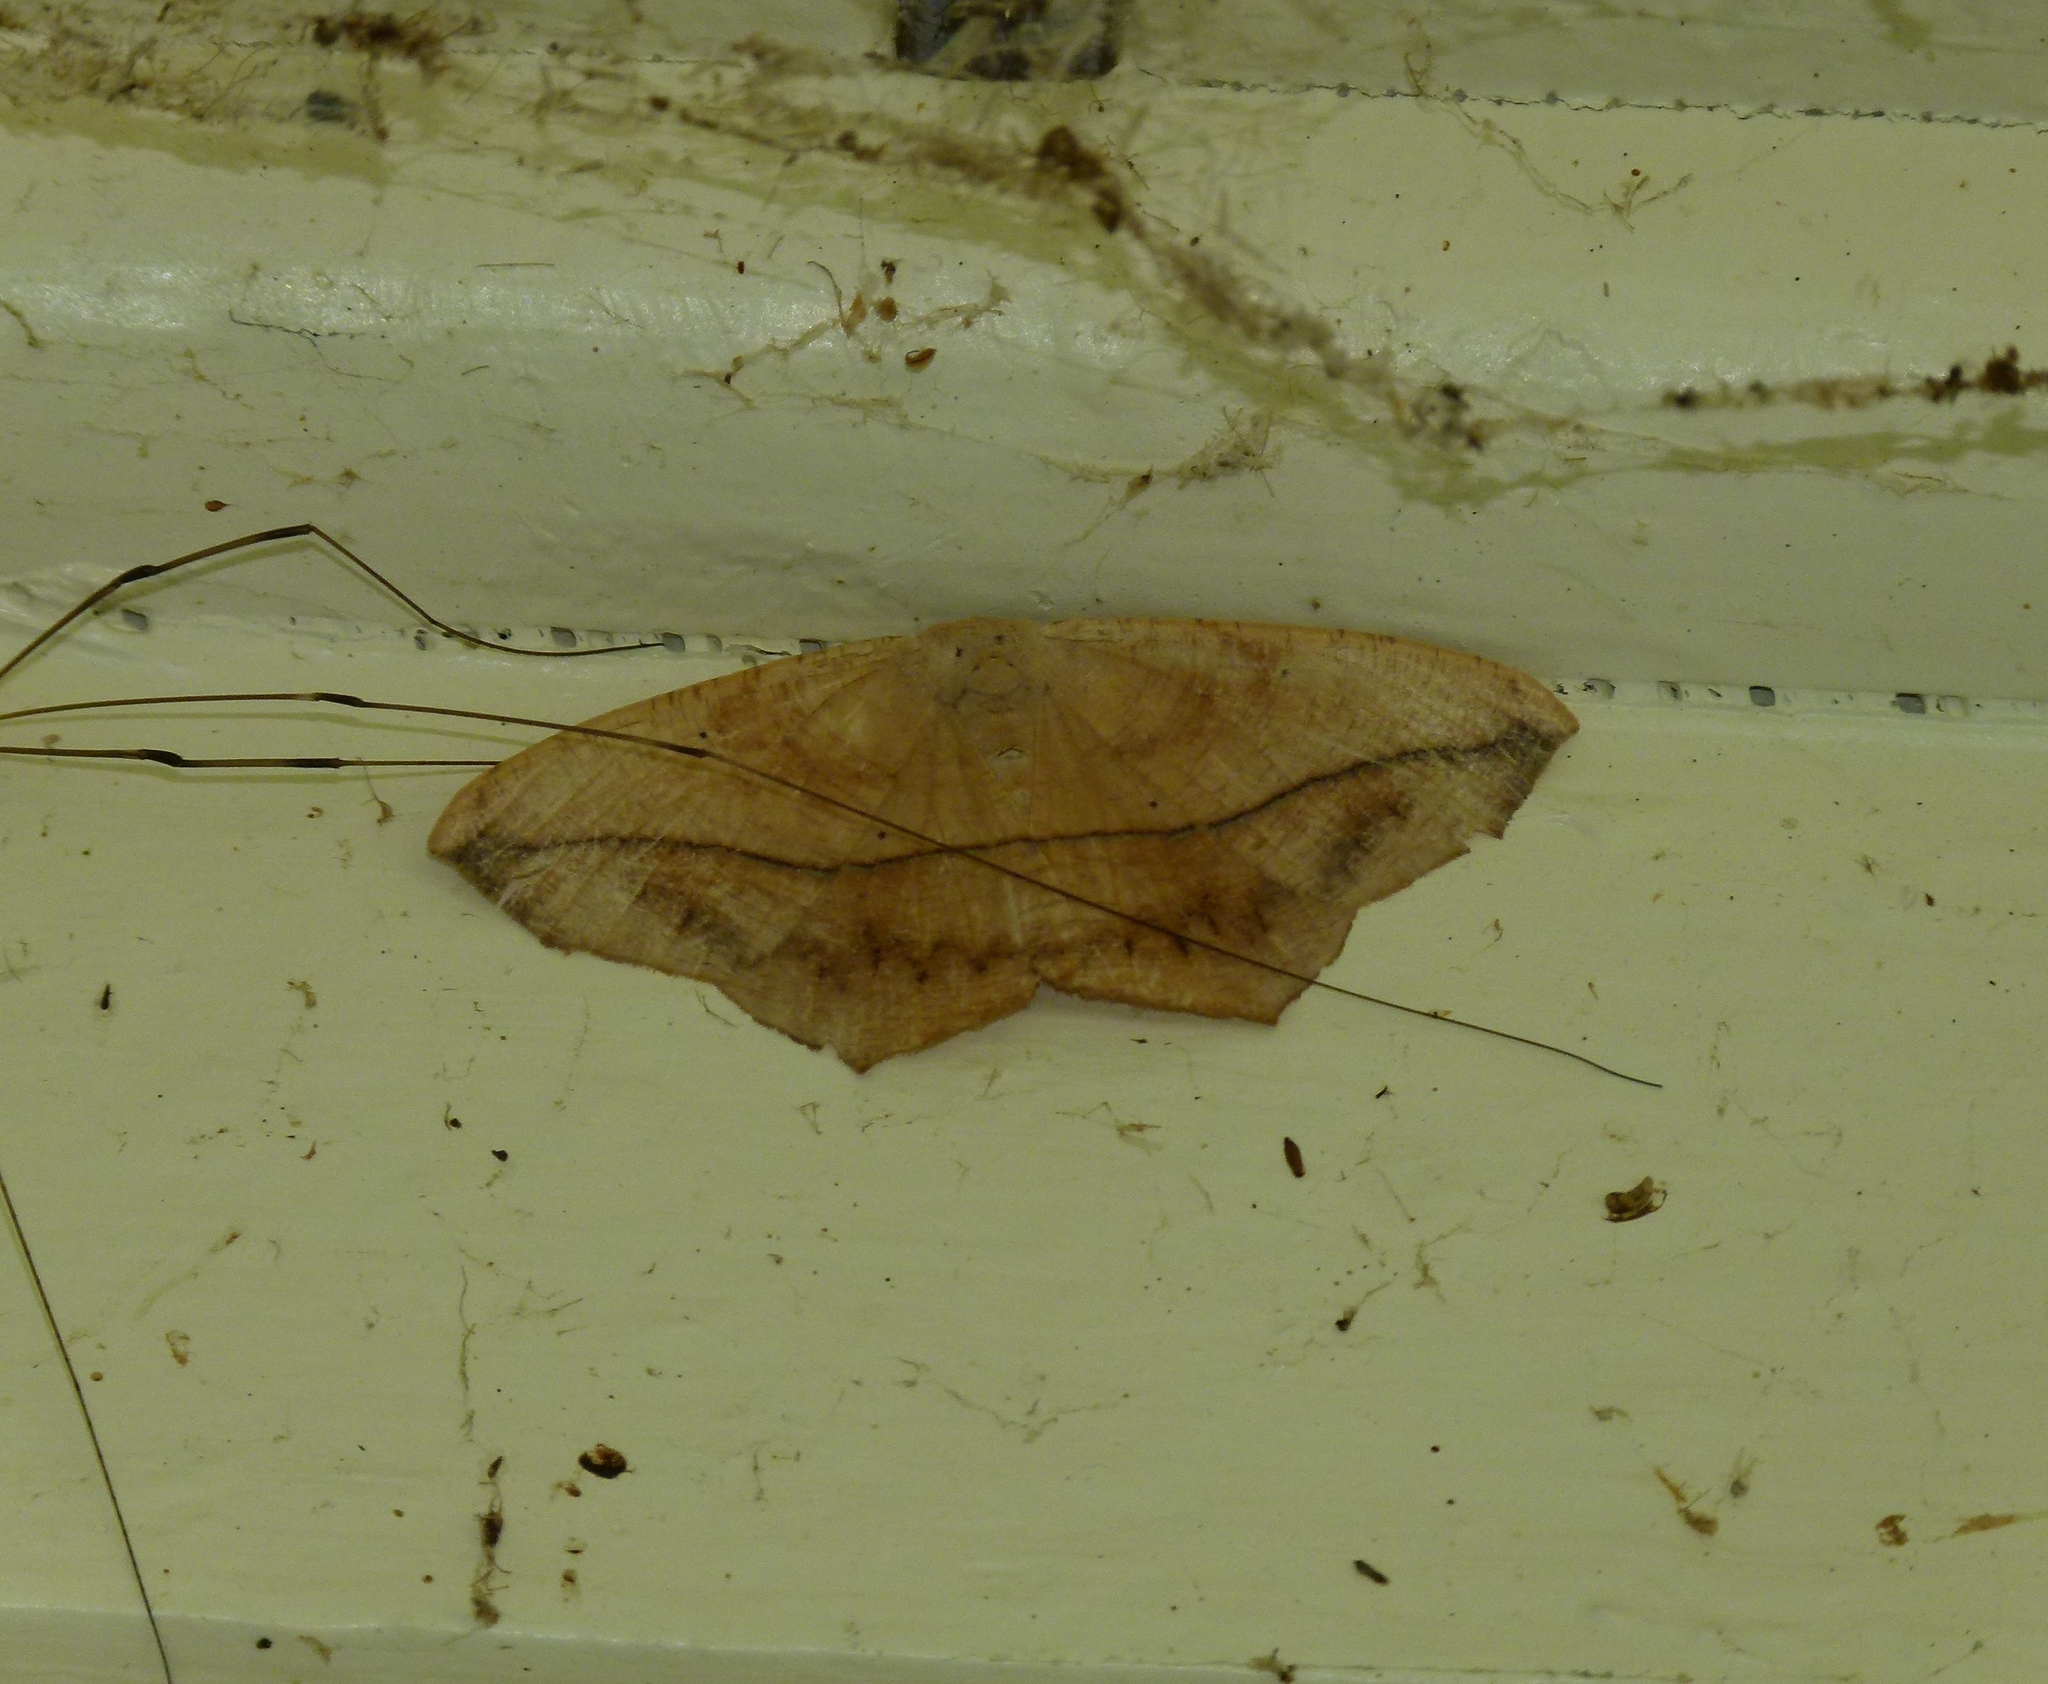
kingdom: Animalia
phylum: Arthropoda
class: Insecta
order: Lepidoptera
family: Geometridae
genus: Prochoerodes
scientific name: Prochoerodes lineola
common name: Large maple spanworm
